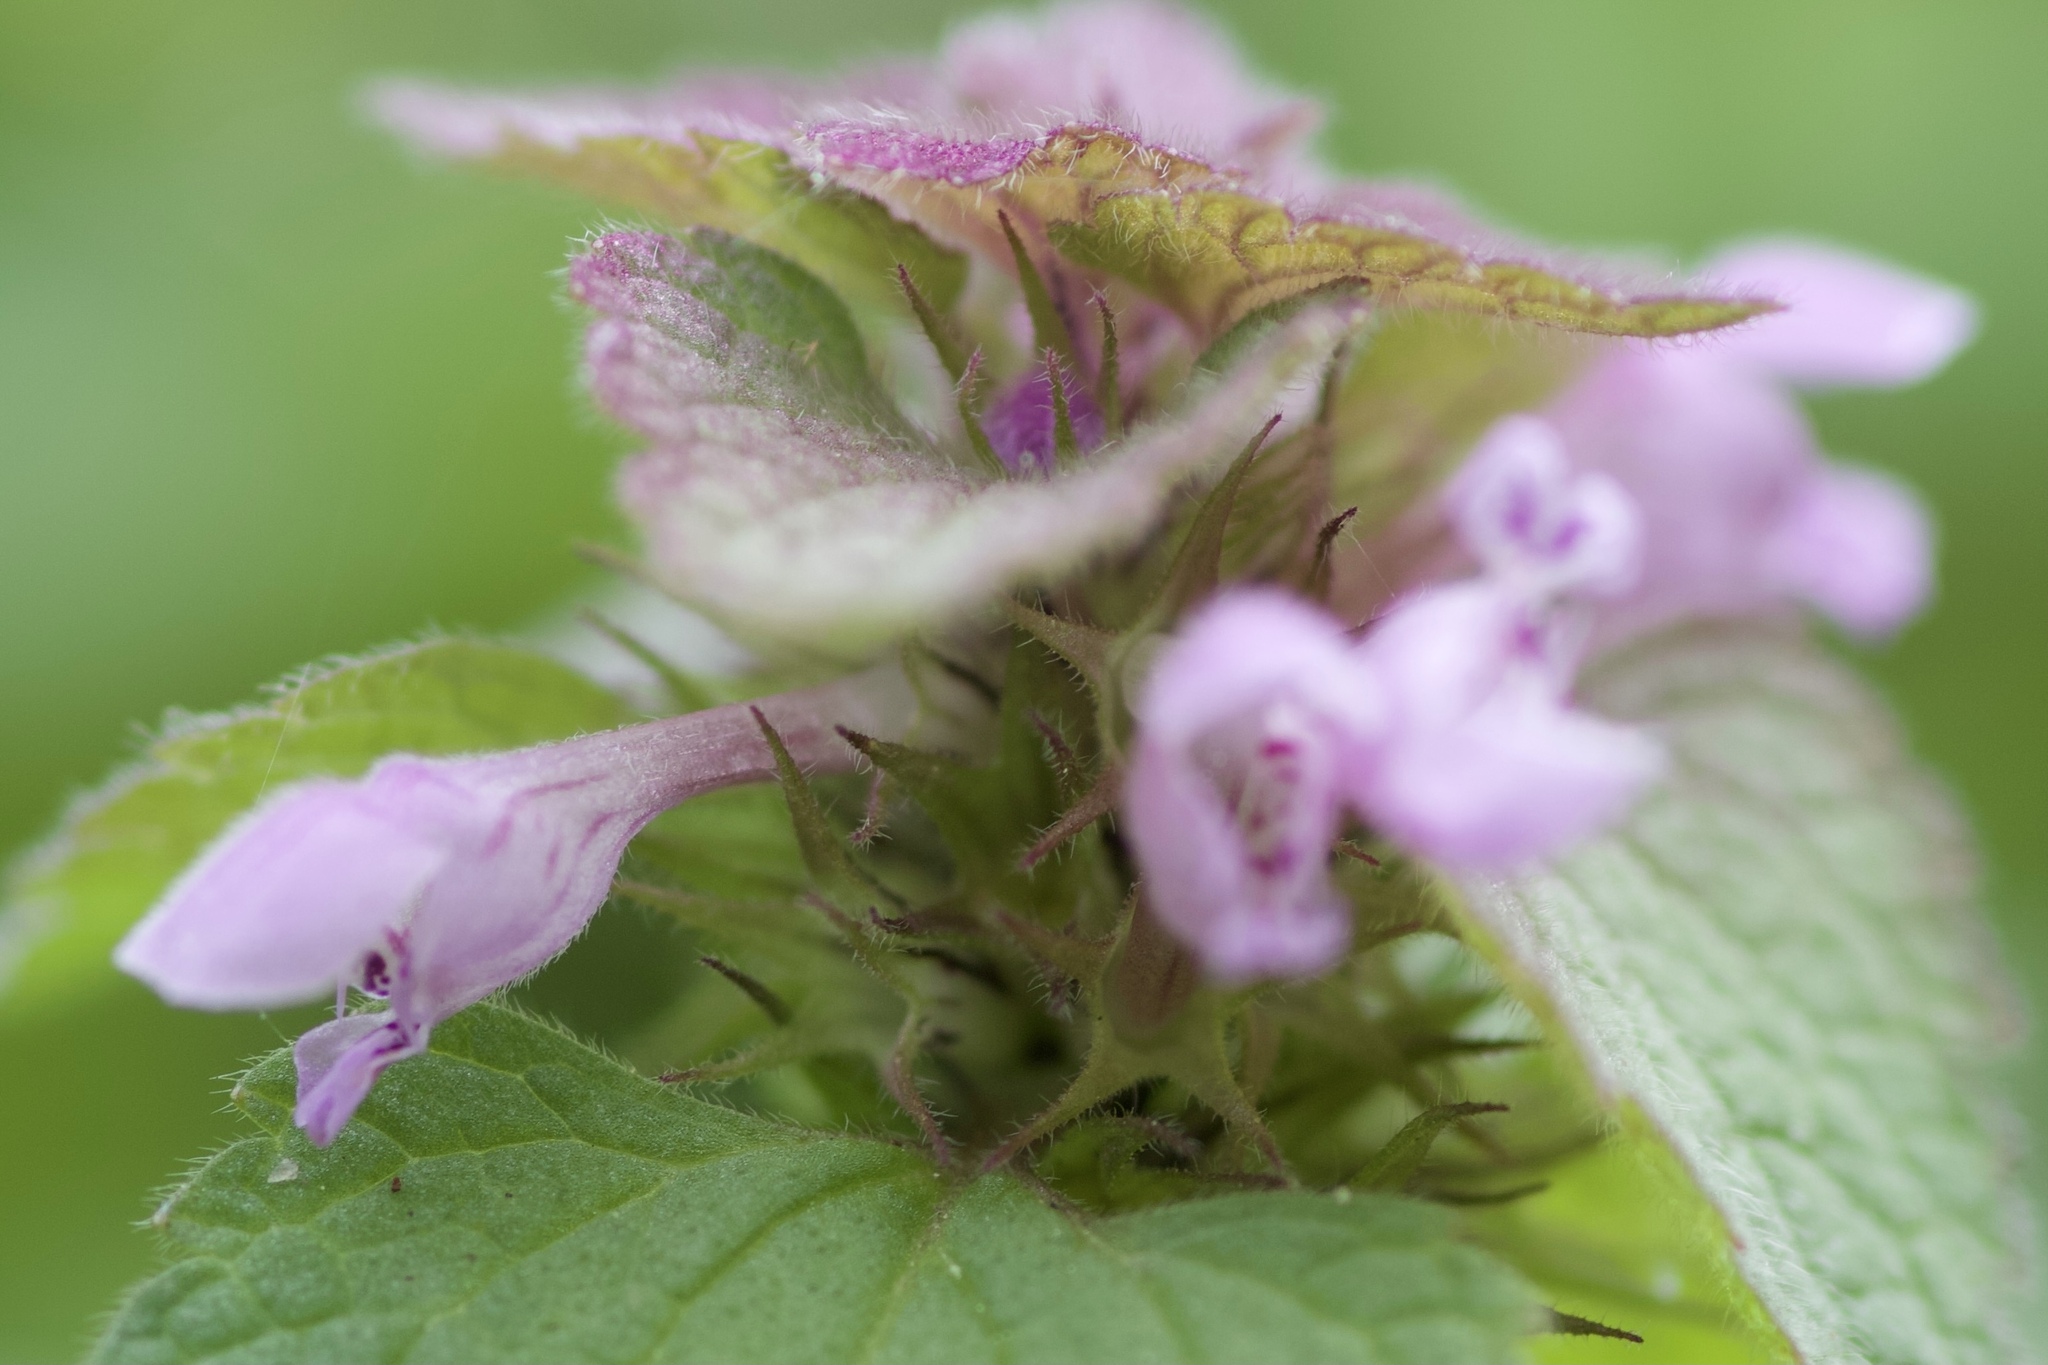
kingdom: Plantae
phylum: Tracheophyta
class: Magnoliopsida
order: Lamiales
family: Lamiaceae
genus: Lamium
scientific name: Lamium purpureum
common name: Red dead-nettle
